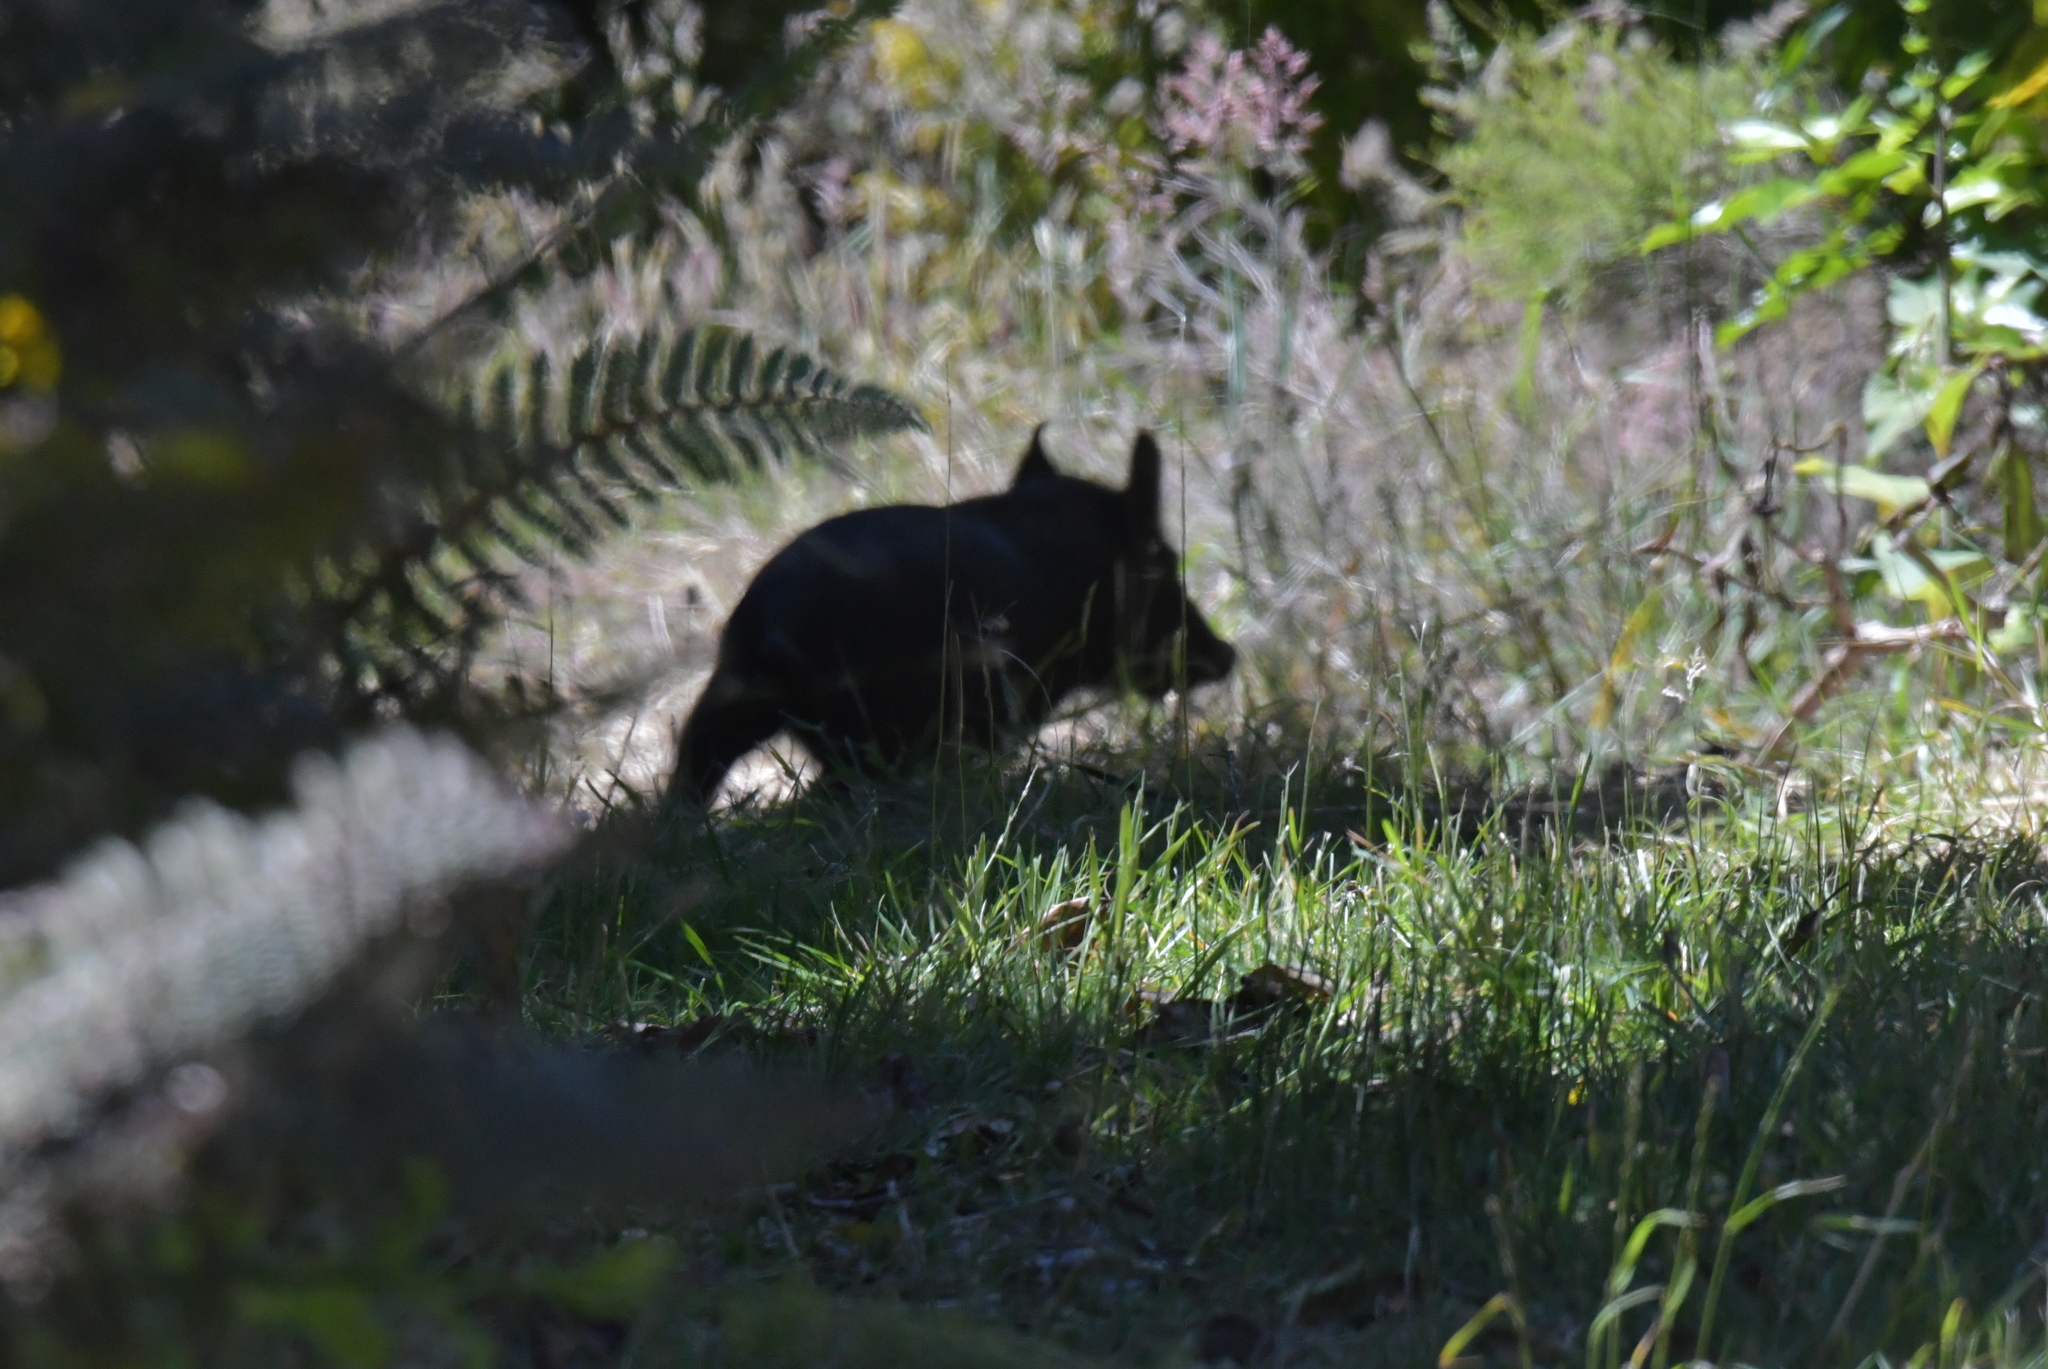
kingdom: Animalia
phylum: Chordata
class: Mammalia
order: Artiodactyla
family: Suidae
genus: Sus
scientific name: Sus scrofa
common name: Wild boar
